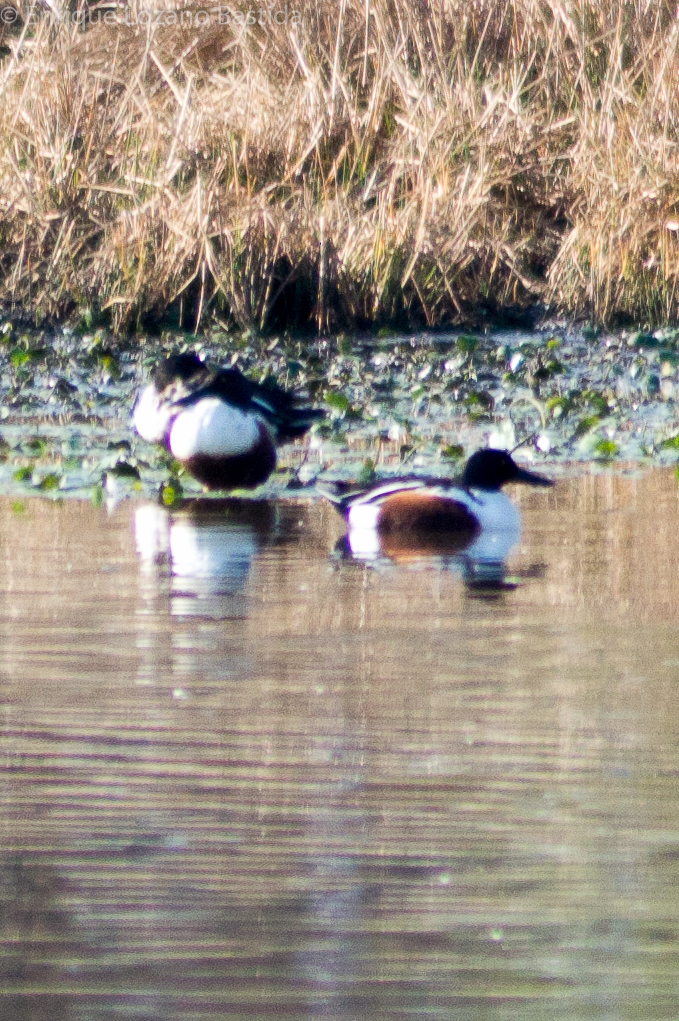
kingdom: Animalia
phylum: Chordata
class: Aves
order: Anseriformes
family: Anatidae
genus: Spatula
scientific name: Spatula clypeata
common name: Northern shoveler
